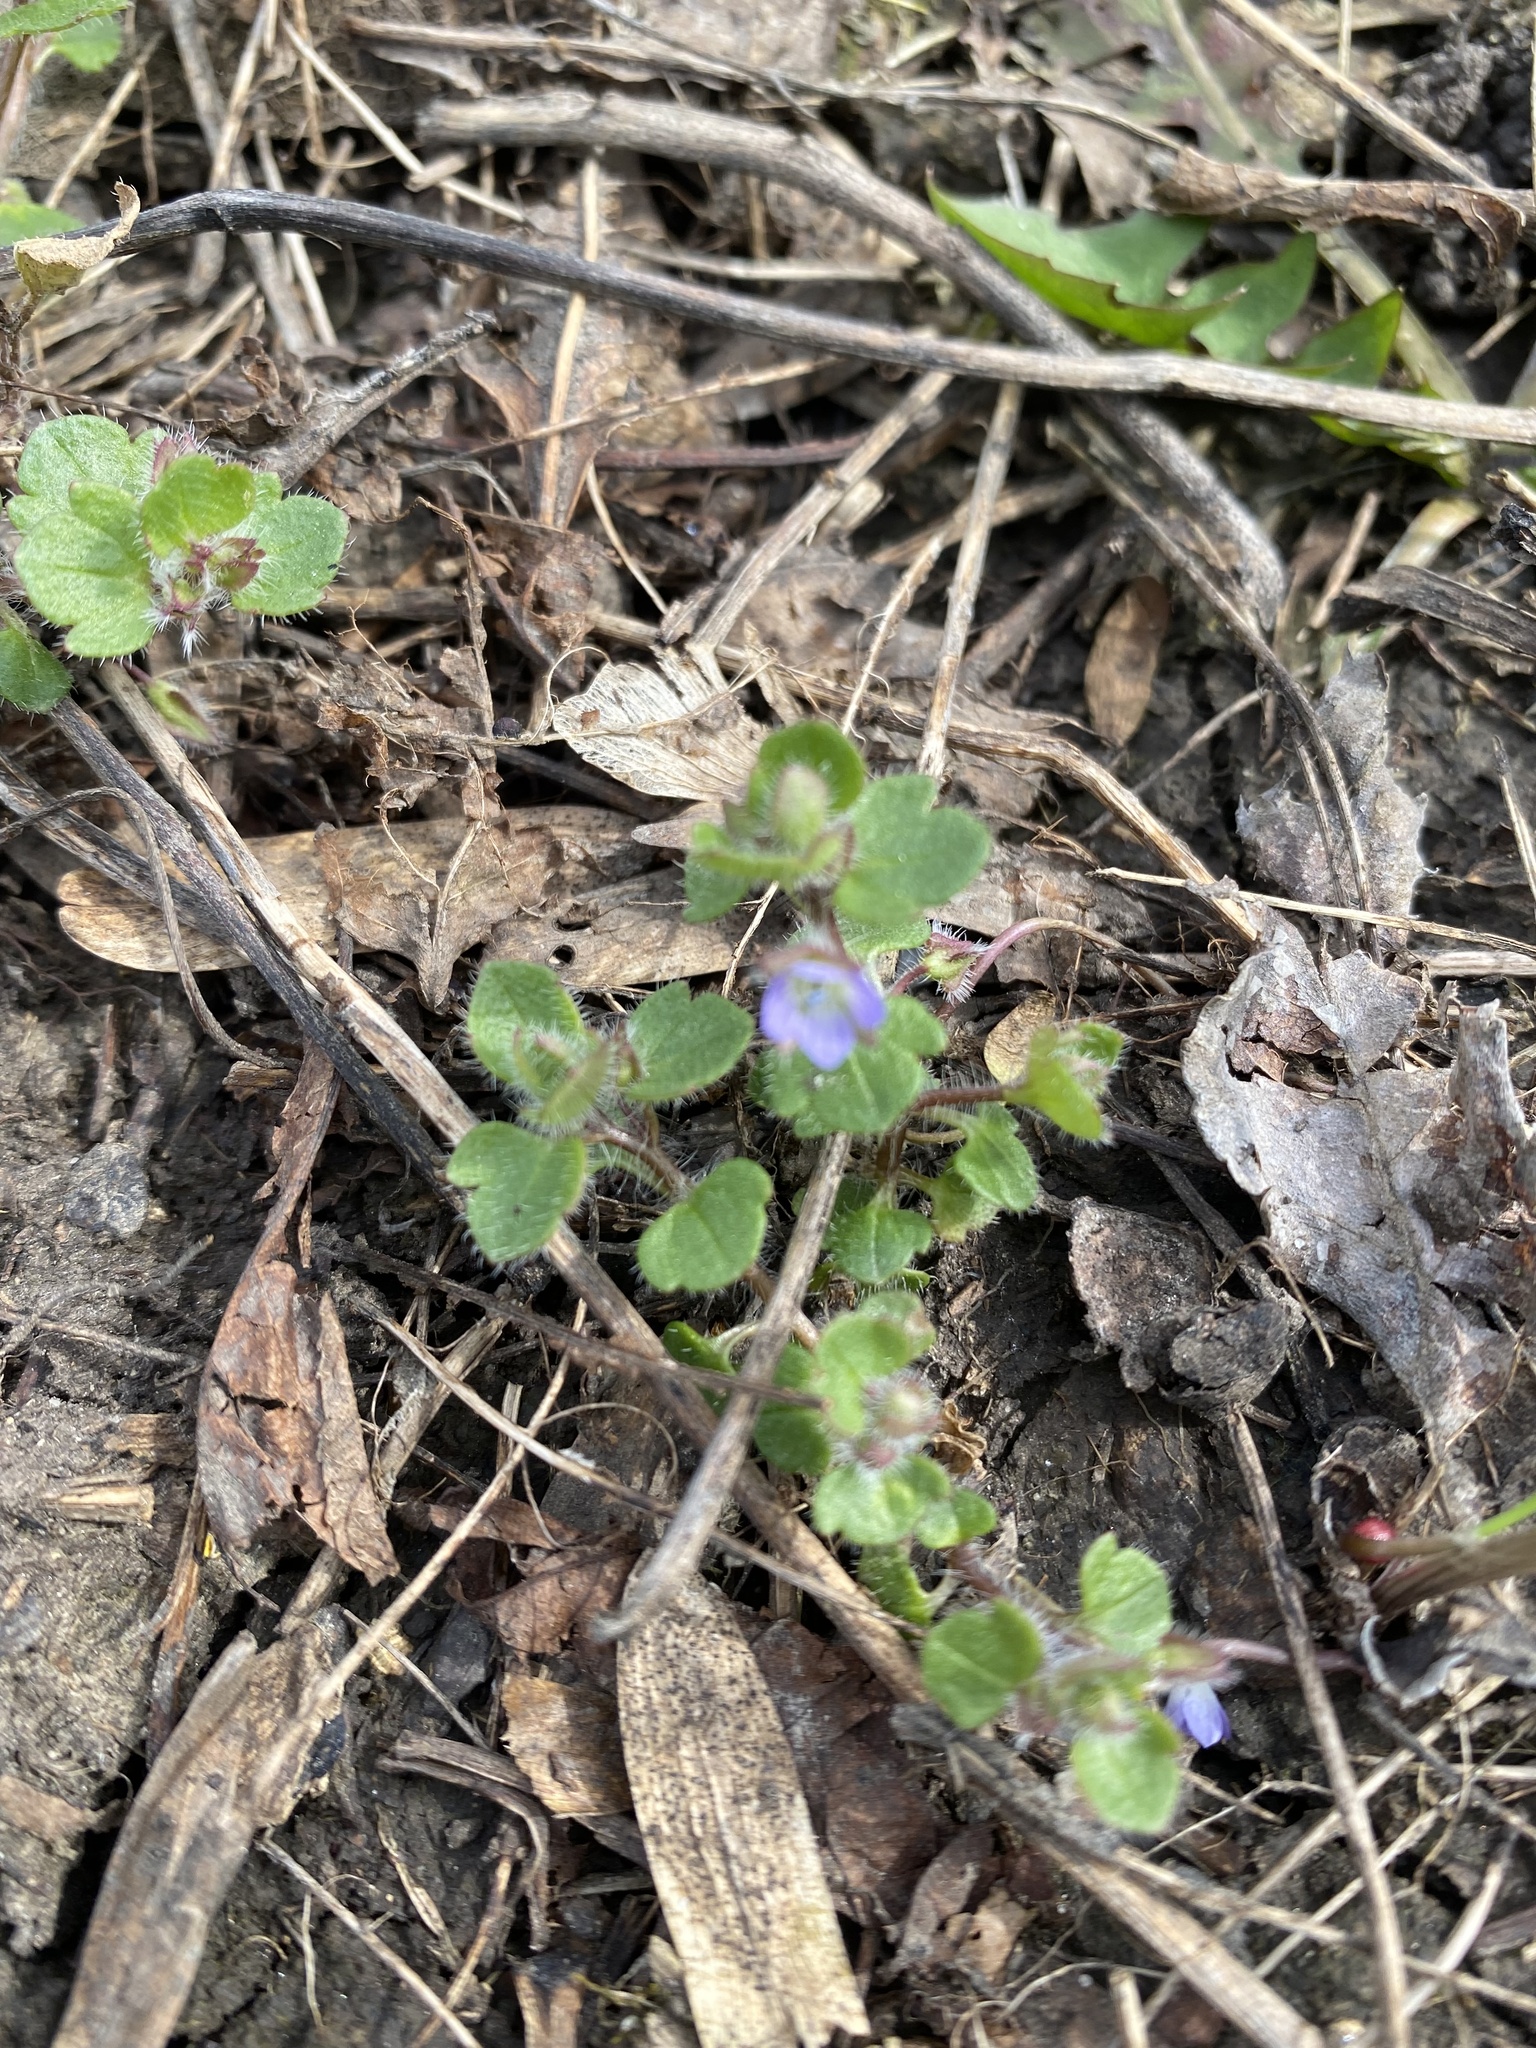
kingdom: Plantae
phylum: Tracheophyta
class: Magnoliopsida
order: Lamiales
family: Plantaginaceae
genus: Veronica
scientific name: Veronica hederifolia
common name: Ivy-leaved speedwell
